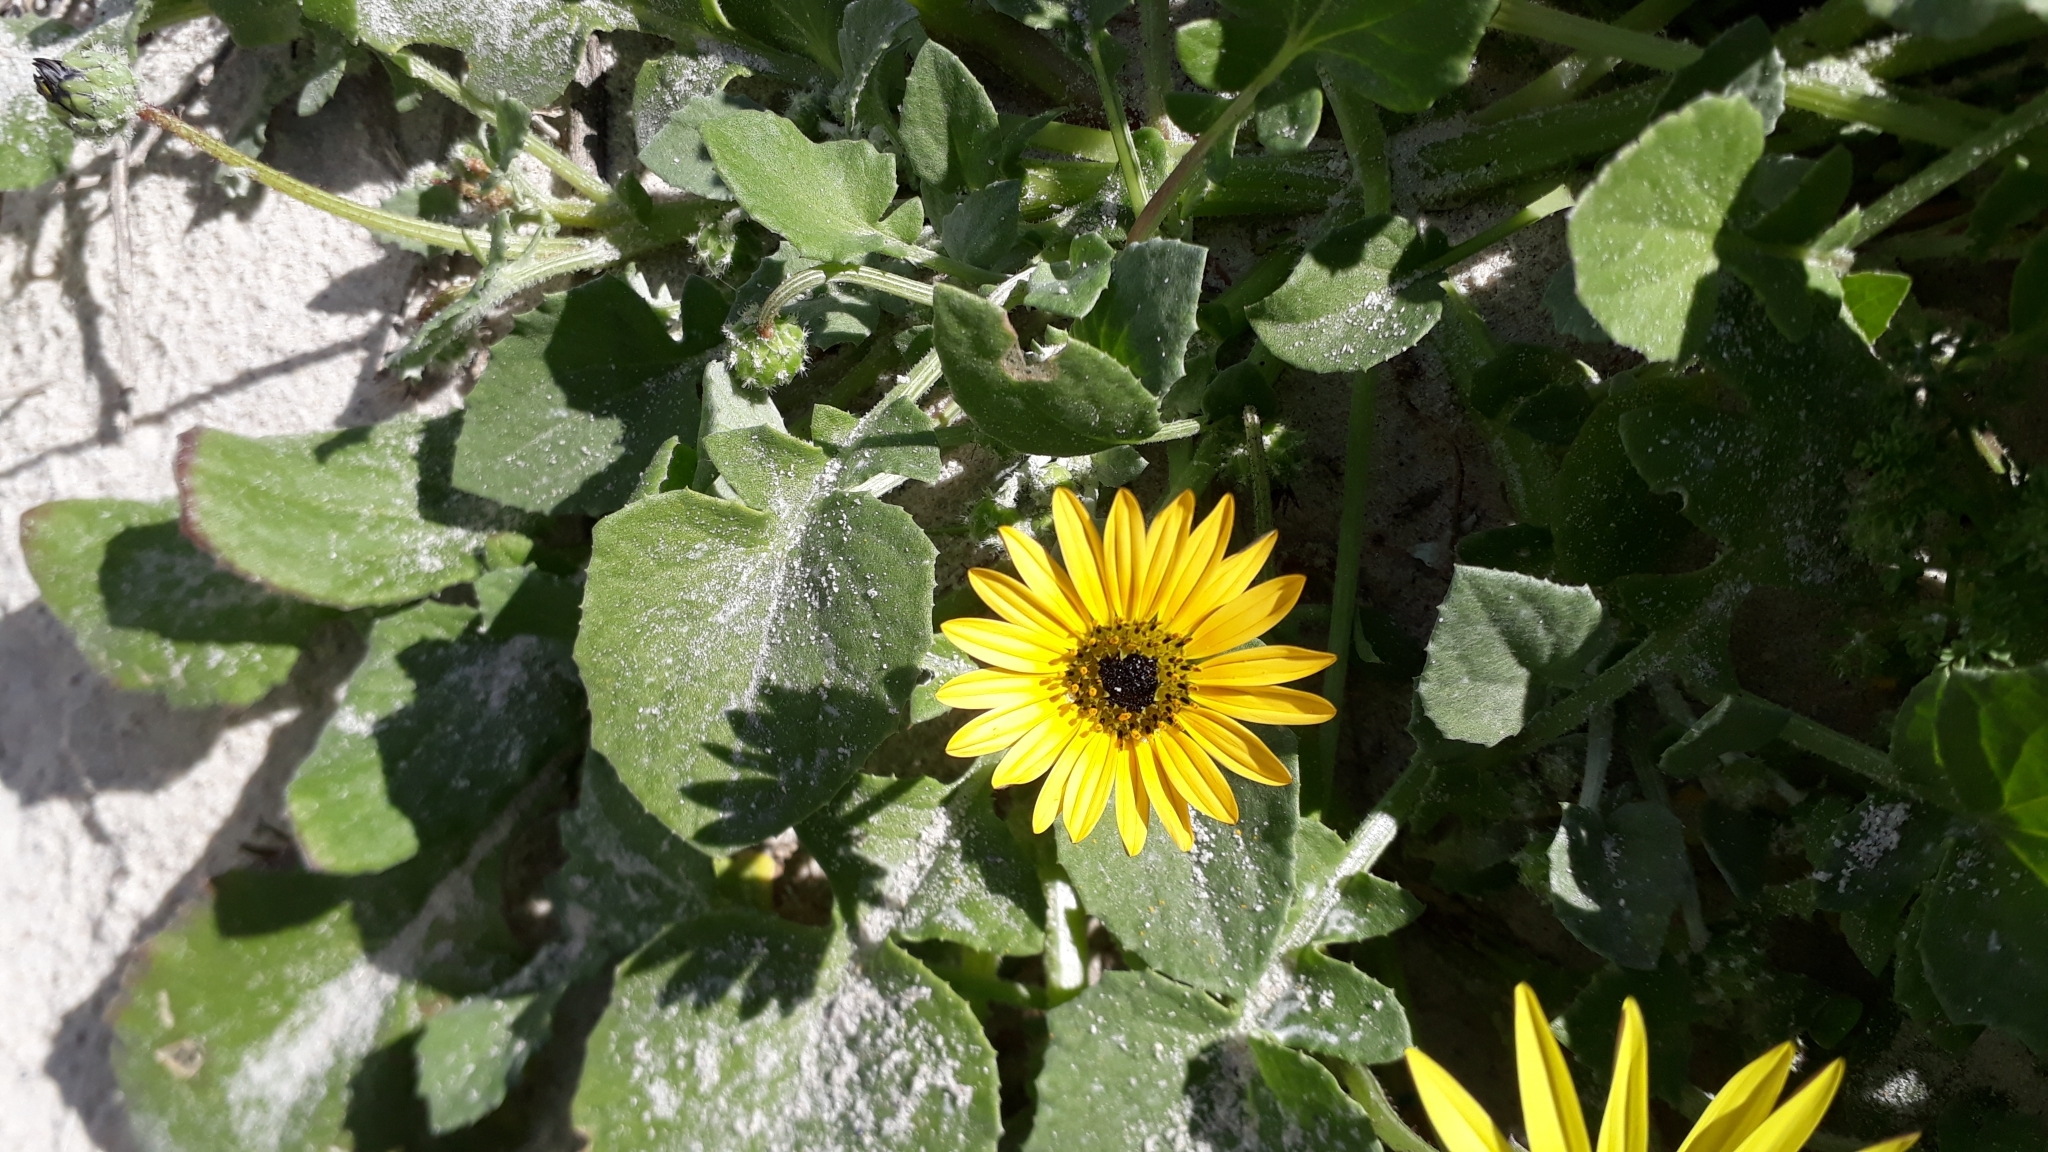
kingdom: Plantae
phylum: Tracheophyta
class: Magnoliopsida
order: Asterales
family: Asteraceae
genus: Arctotheca
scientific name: Arctotheca calendula
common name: Capeweed
